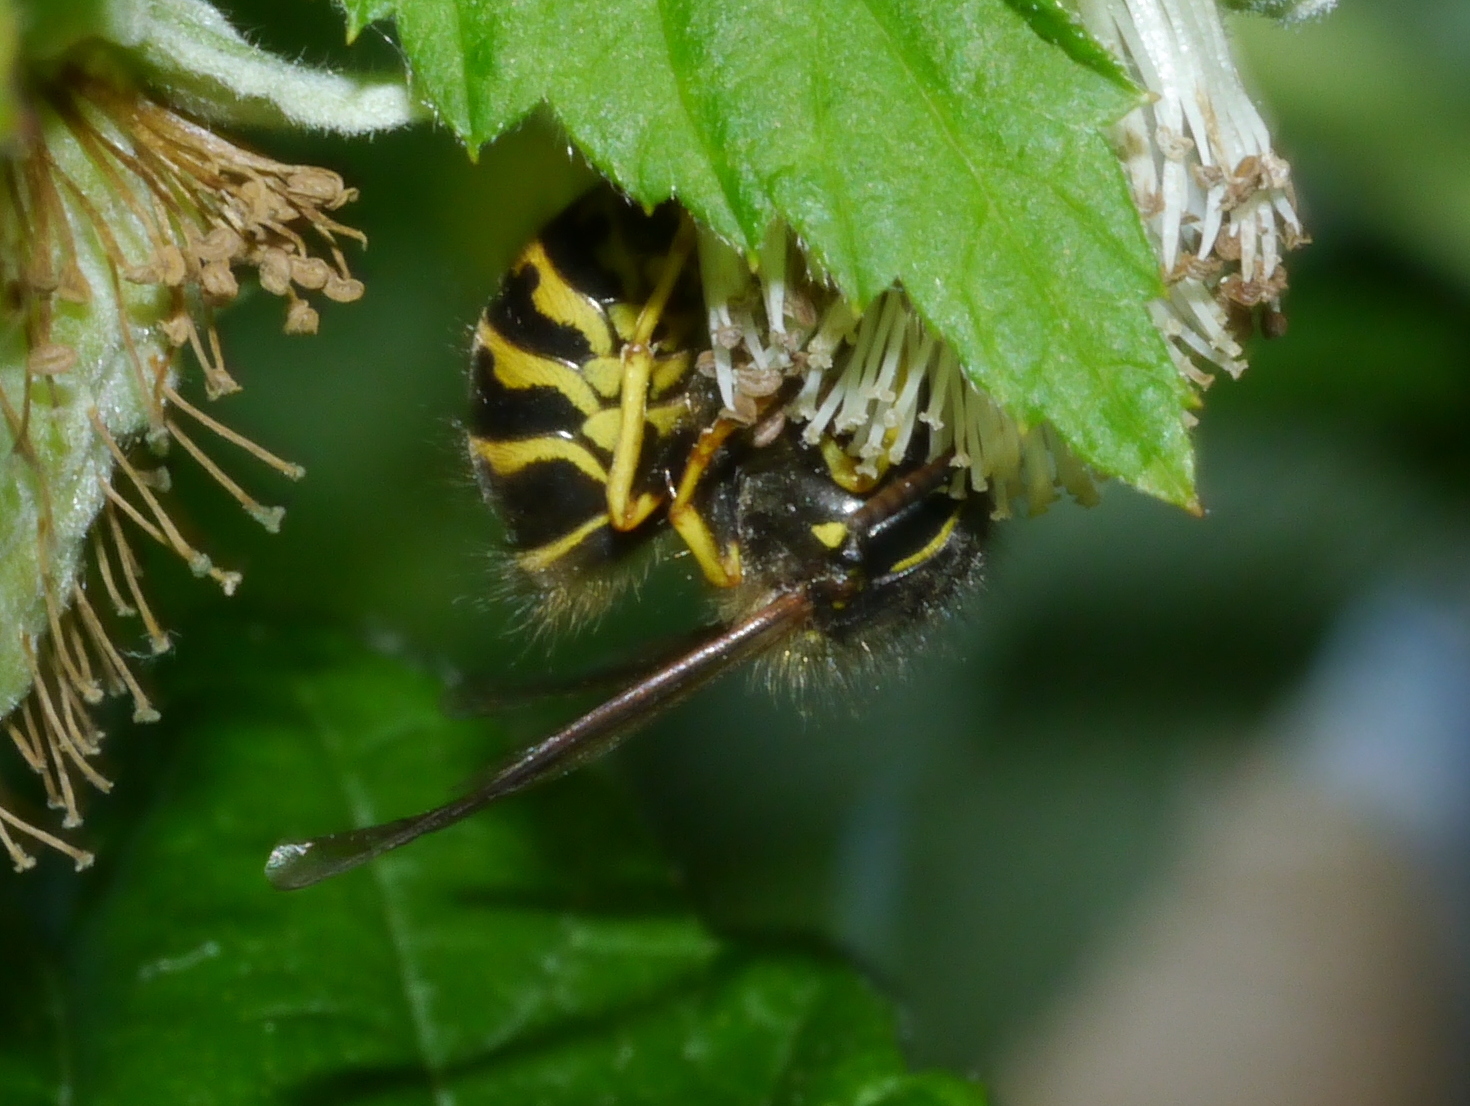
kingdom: Animalia
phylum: Arthropoda
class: Insecta
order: Hymenoptera
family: Vespidae
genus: Dolichovespula
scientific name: Dolichovespula arenaria
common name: Aerial yellowjacket
